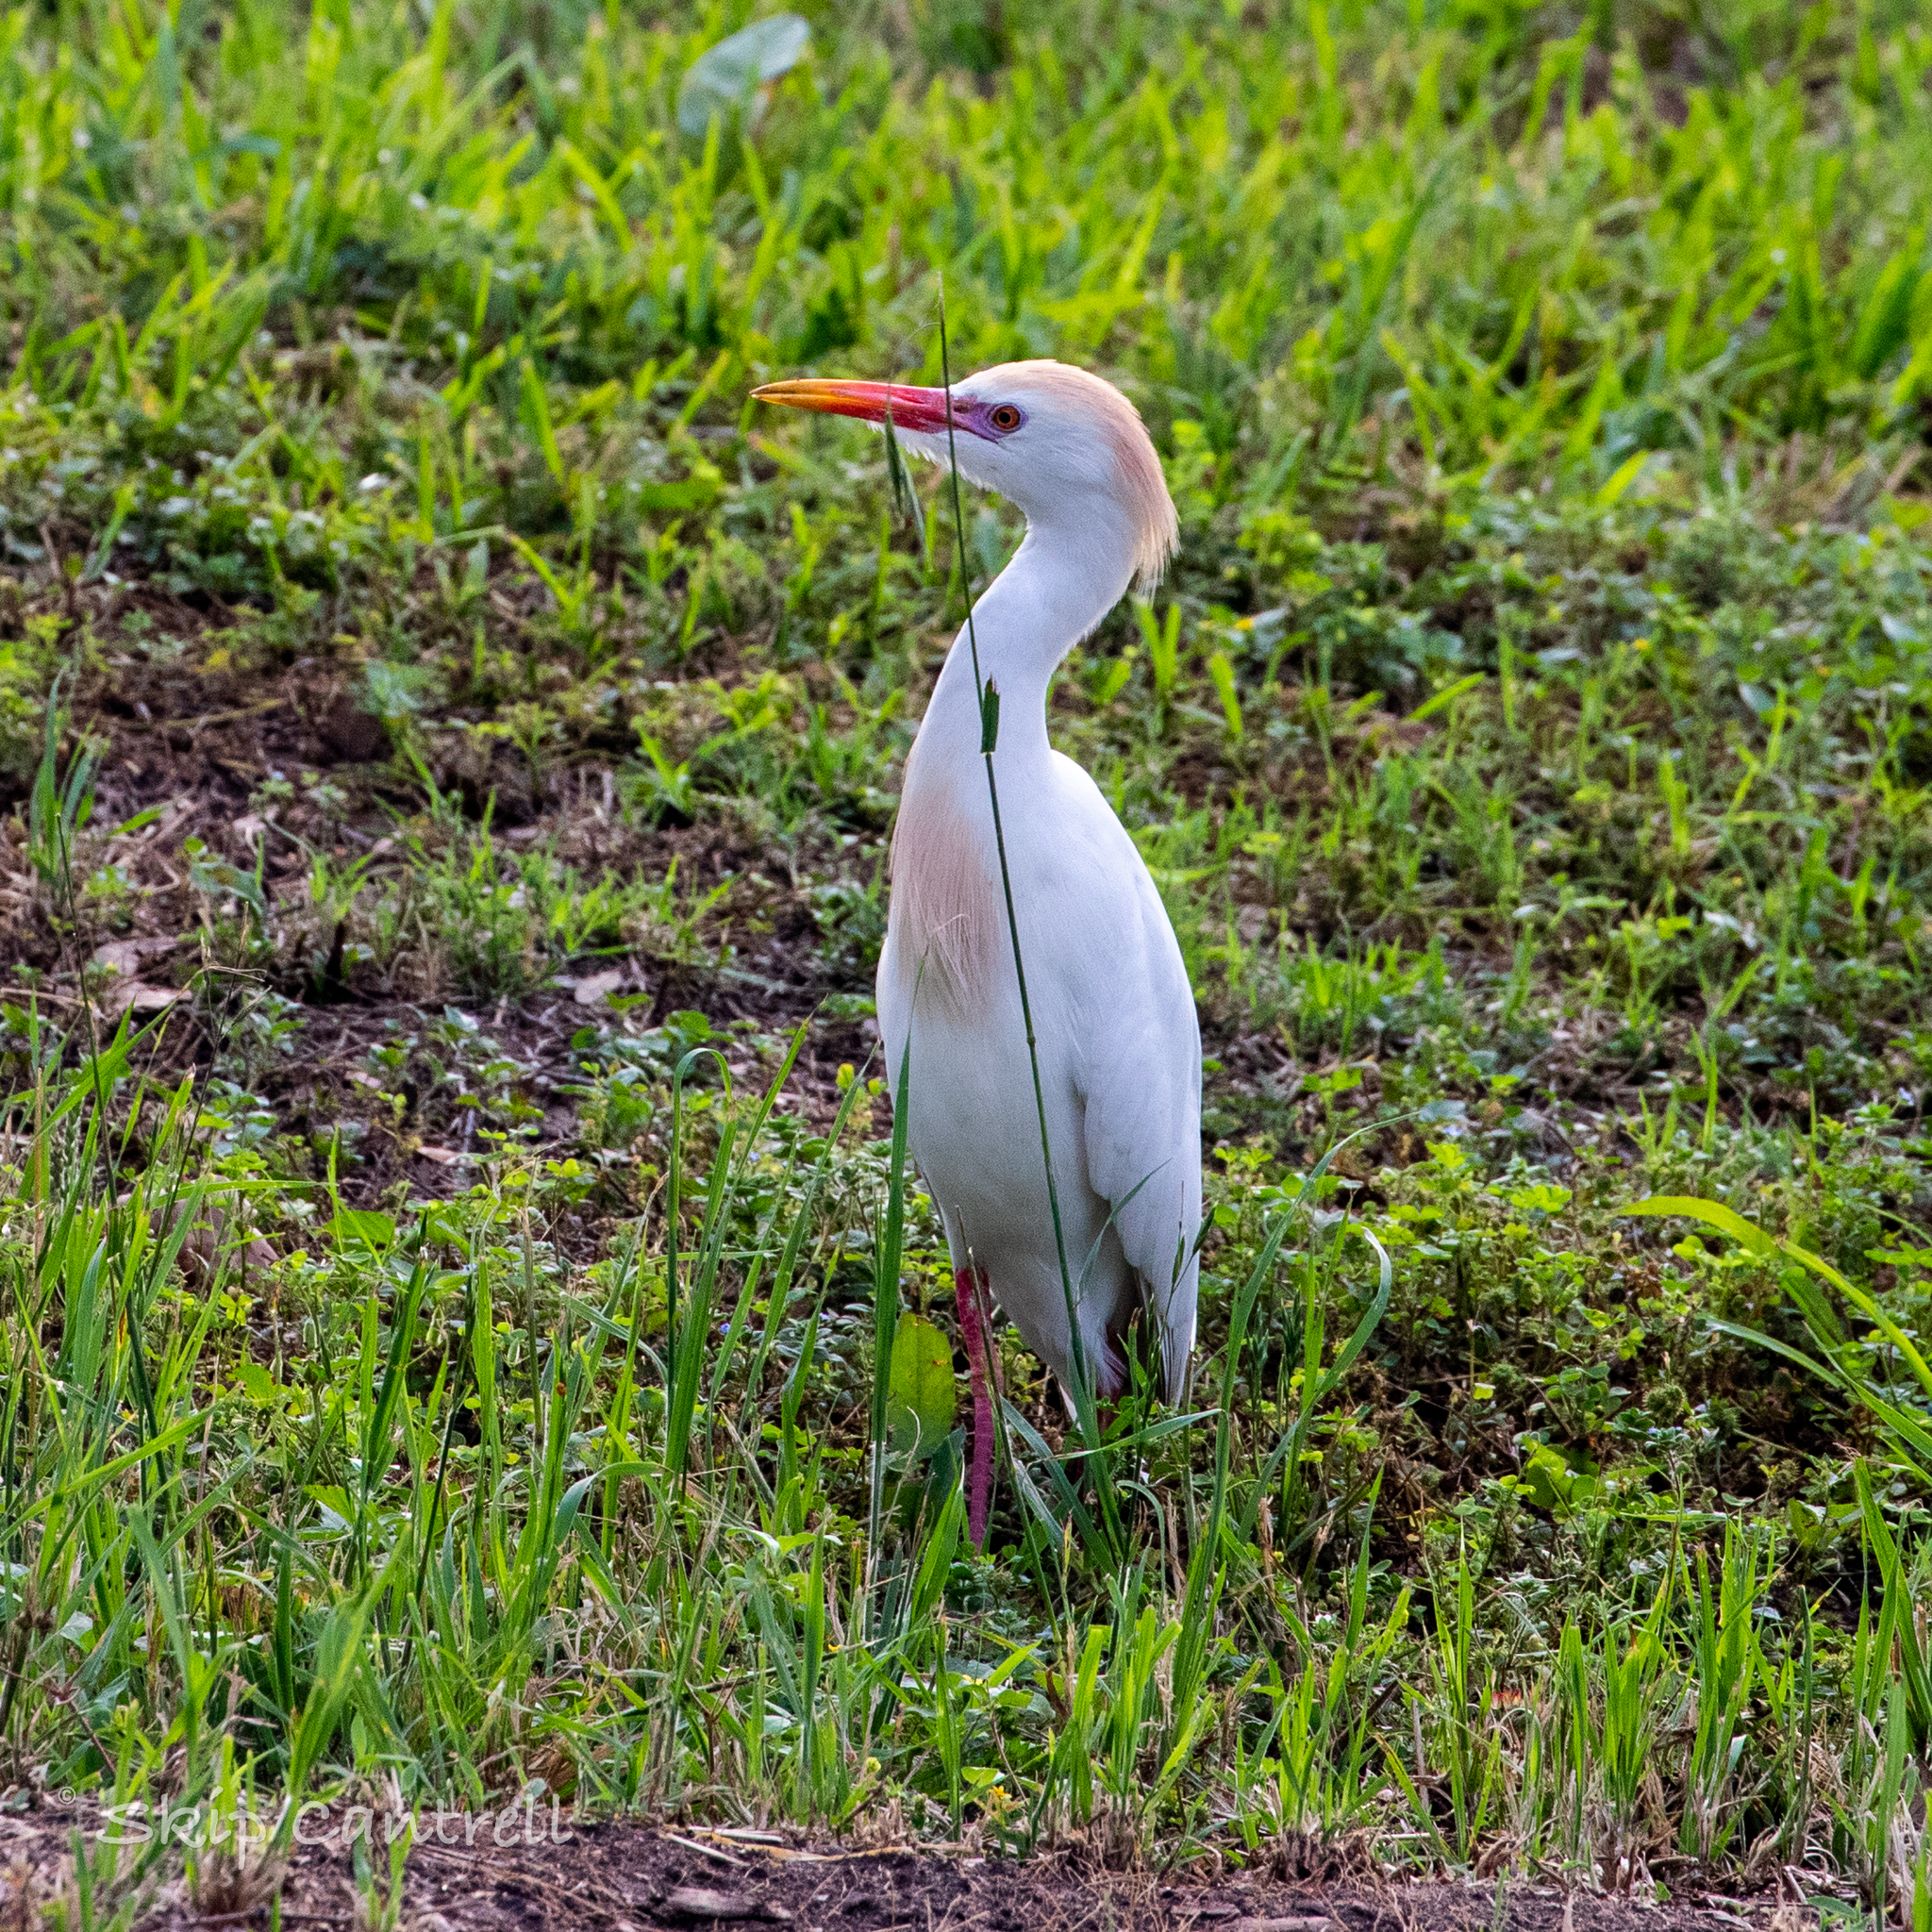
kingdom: Animalia
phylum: Chordata
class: Aves
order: Pelecaniformes
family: Ardeidae
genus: Bubulcus
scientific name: Bubulcus ibis
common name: Cattle egret
